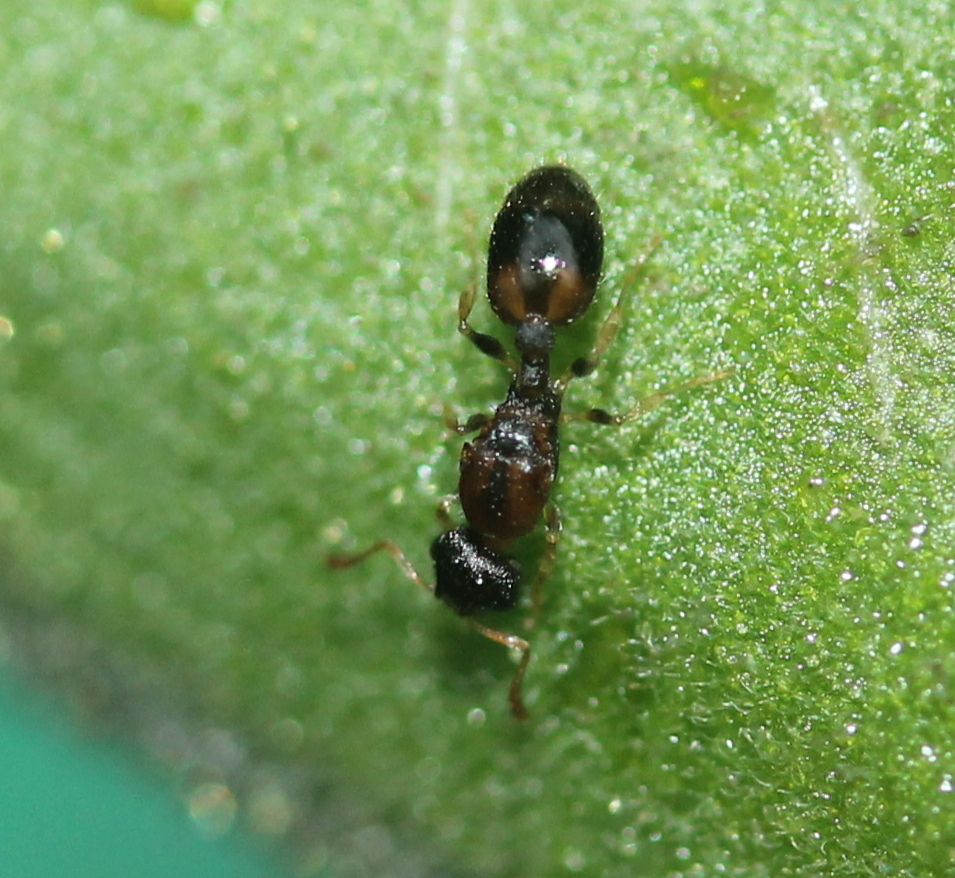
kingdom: Animalia
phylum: Arthropoda
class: Insecta
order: Hymenoptera
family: Formicidae
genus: Temnothorax
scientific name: Temnothorax curvispinosus
